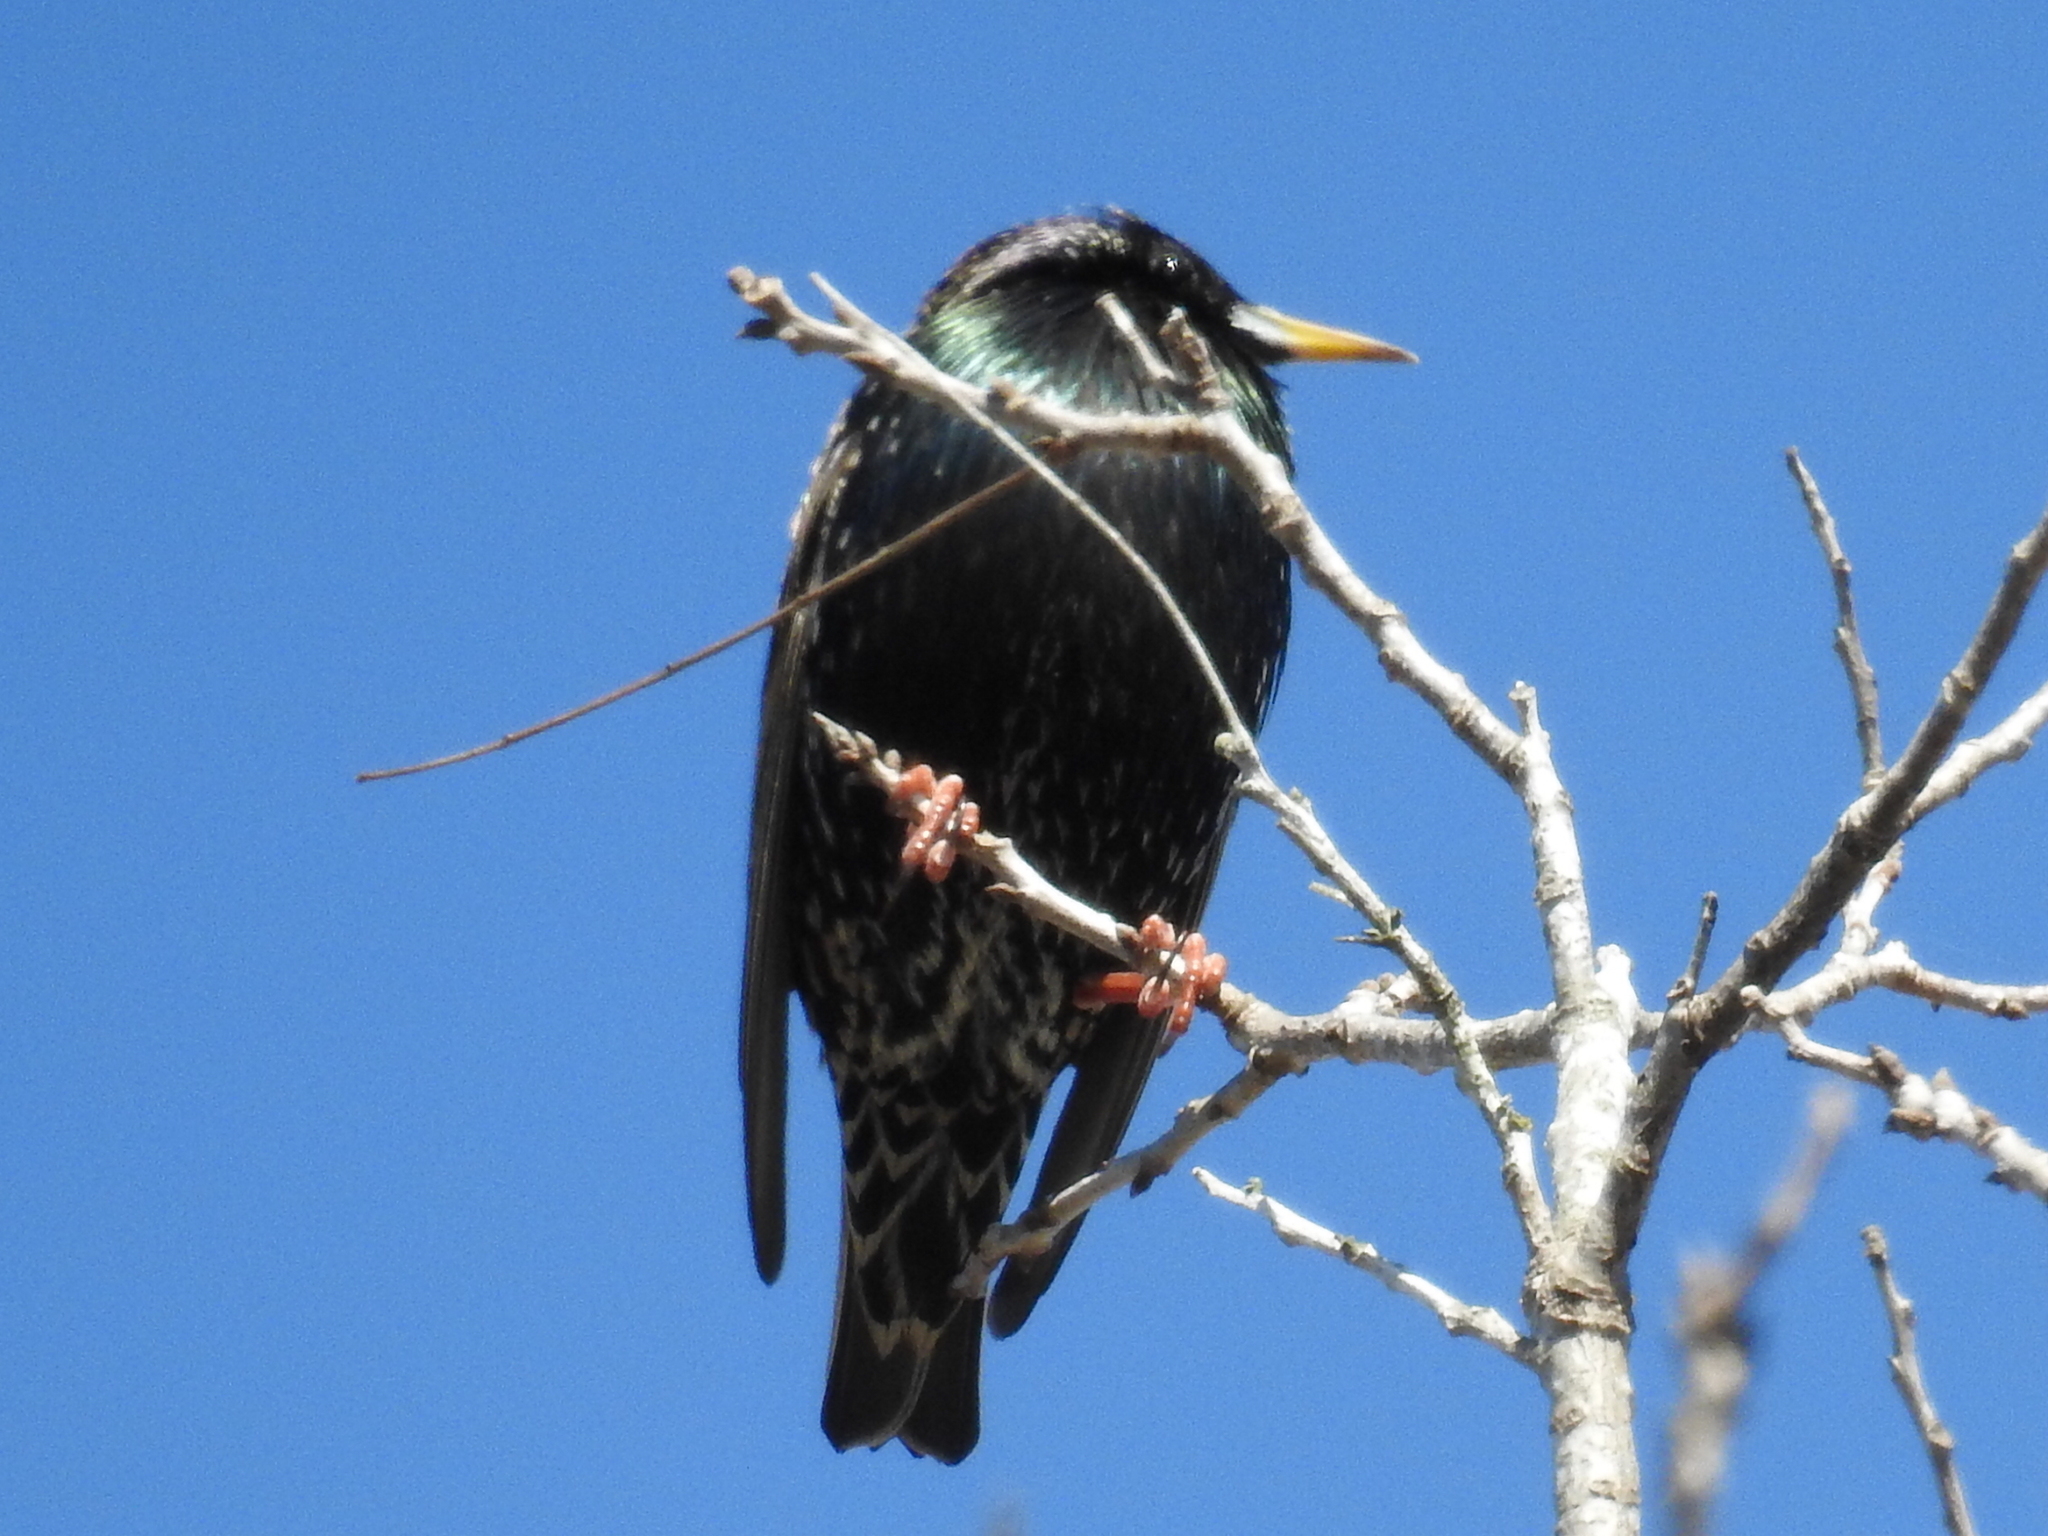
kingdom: Animalia
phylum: Chordata
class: Aves
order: Passeriformes
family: Sturnidae
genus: Sturnus
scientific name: Sturnus vulgaris
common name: Common starling
